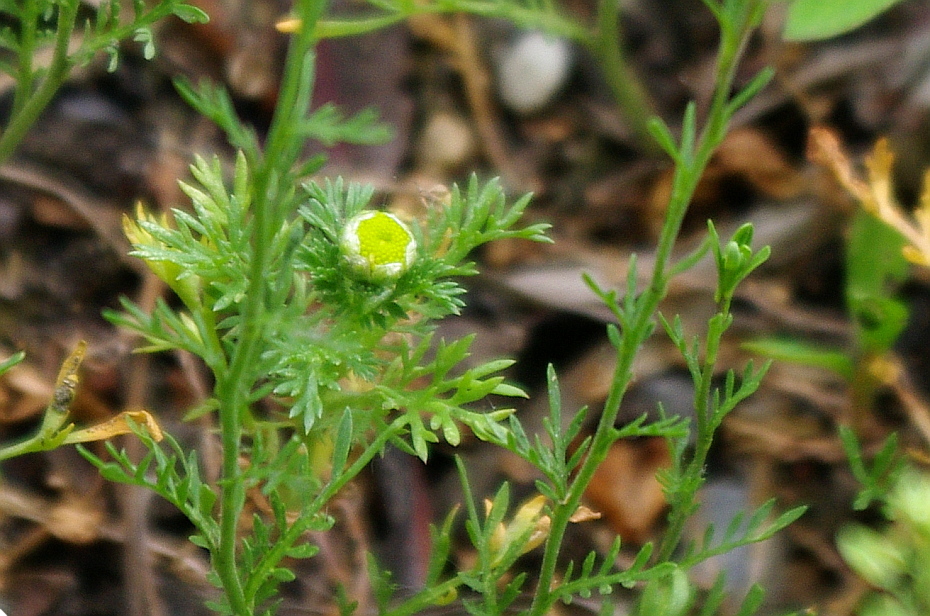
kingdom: Plantae
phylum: Tracheophyta
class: Magnoliopsida
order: Asterales
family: Asteraceae
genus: Matricaria
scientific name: Matricaria discoidea
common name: Disc mayweed
